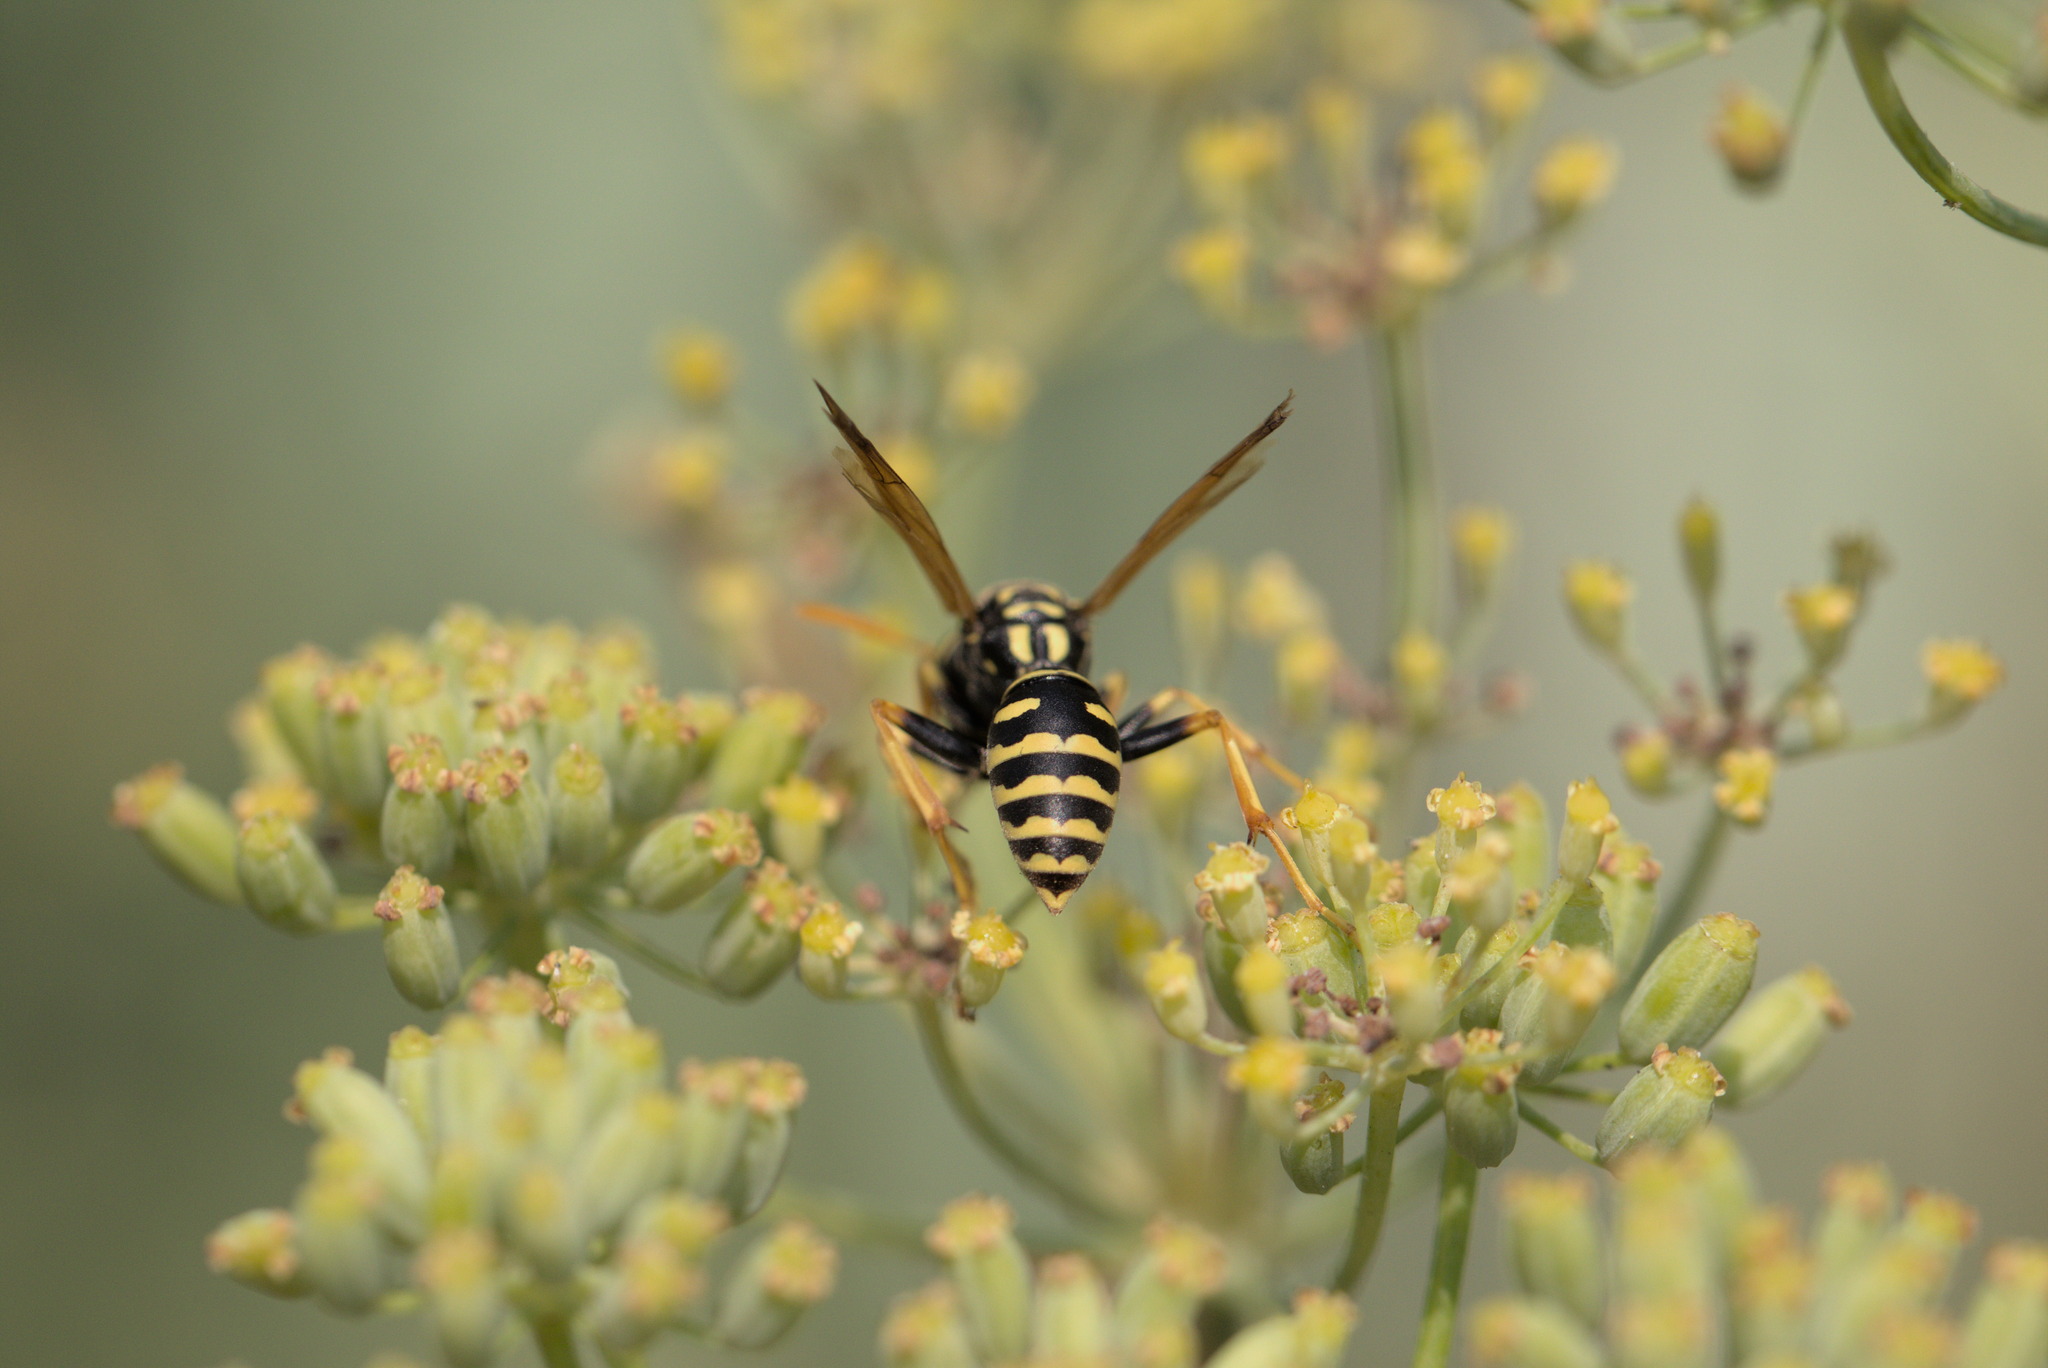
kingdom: Animalia
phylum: Arthropoda
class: Insecta
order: Hymenoptera
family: Eumenidae
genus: Polistes
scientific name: Polistes dominula
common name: Paper wasp
